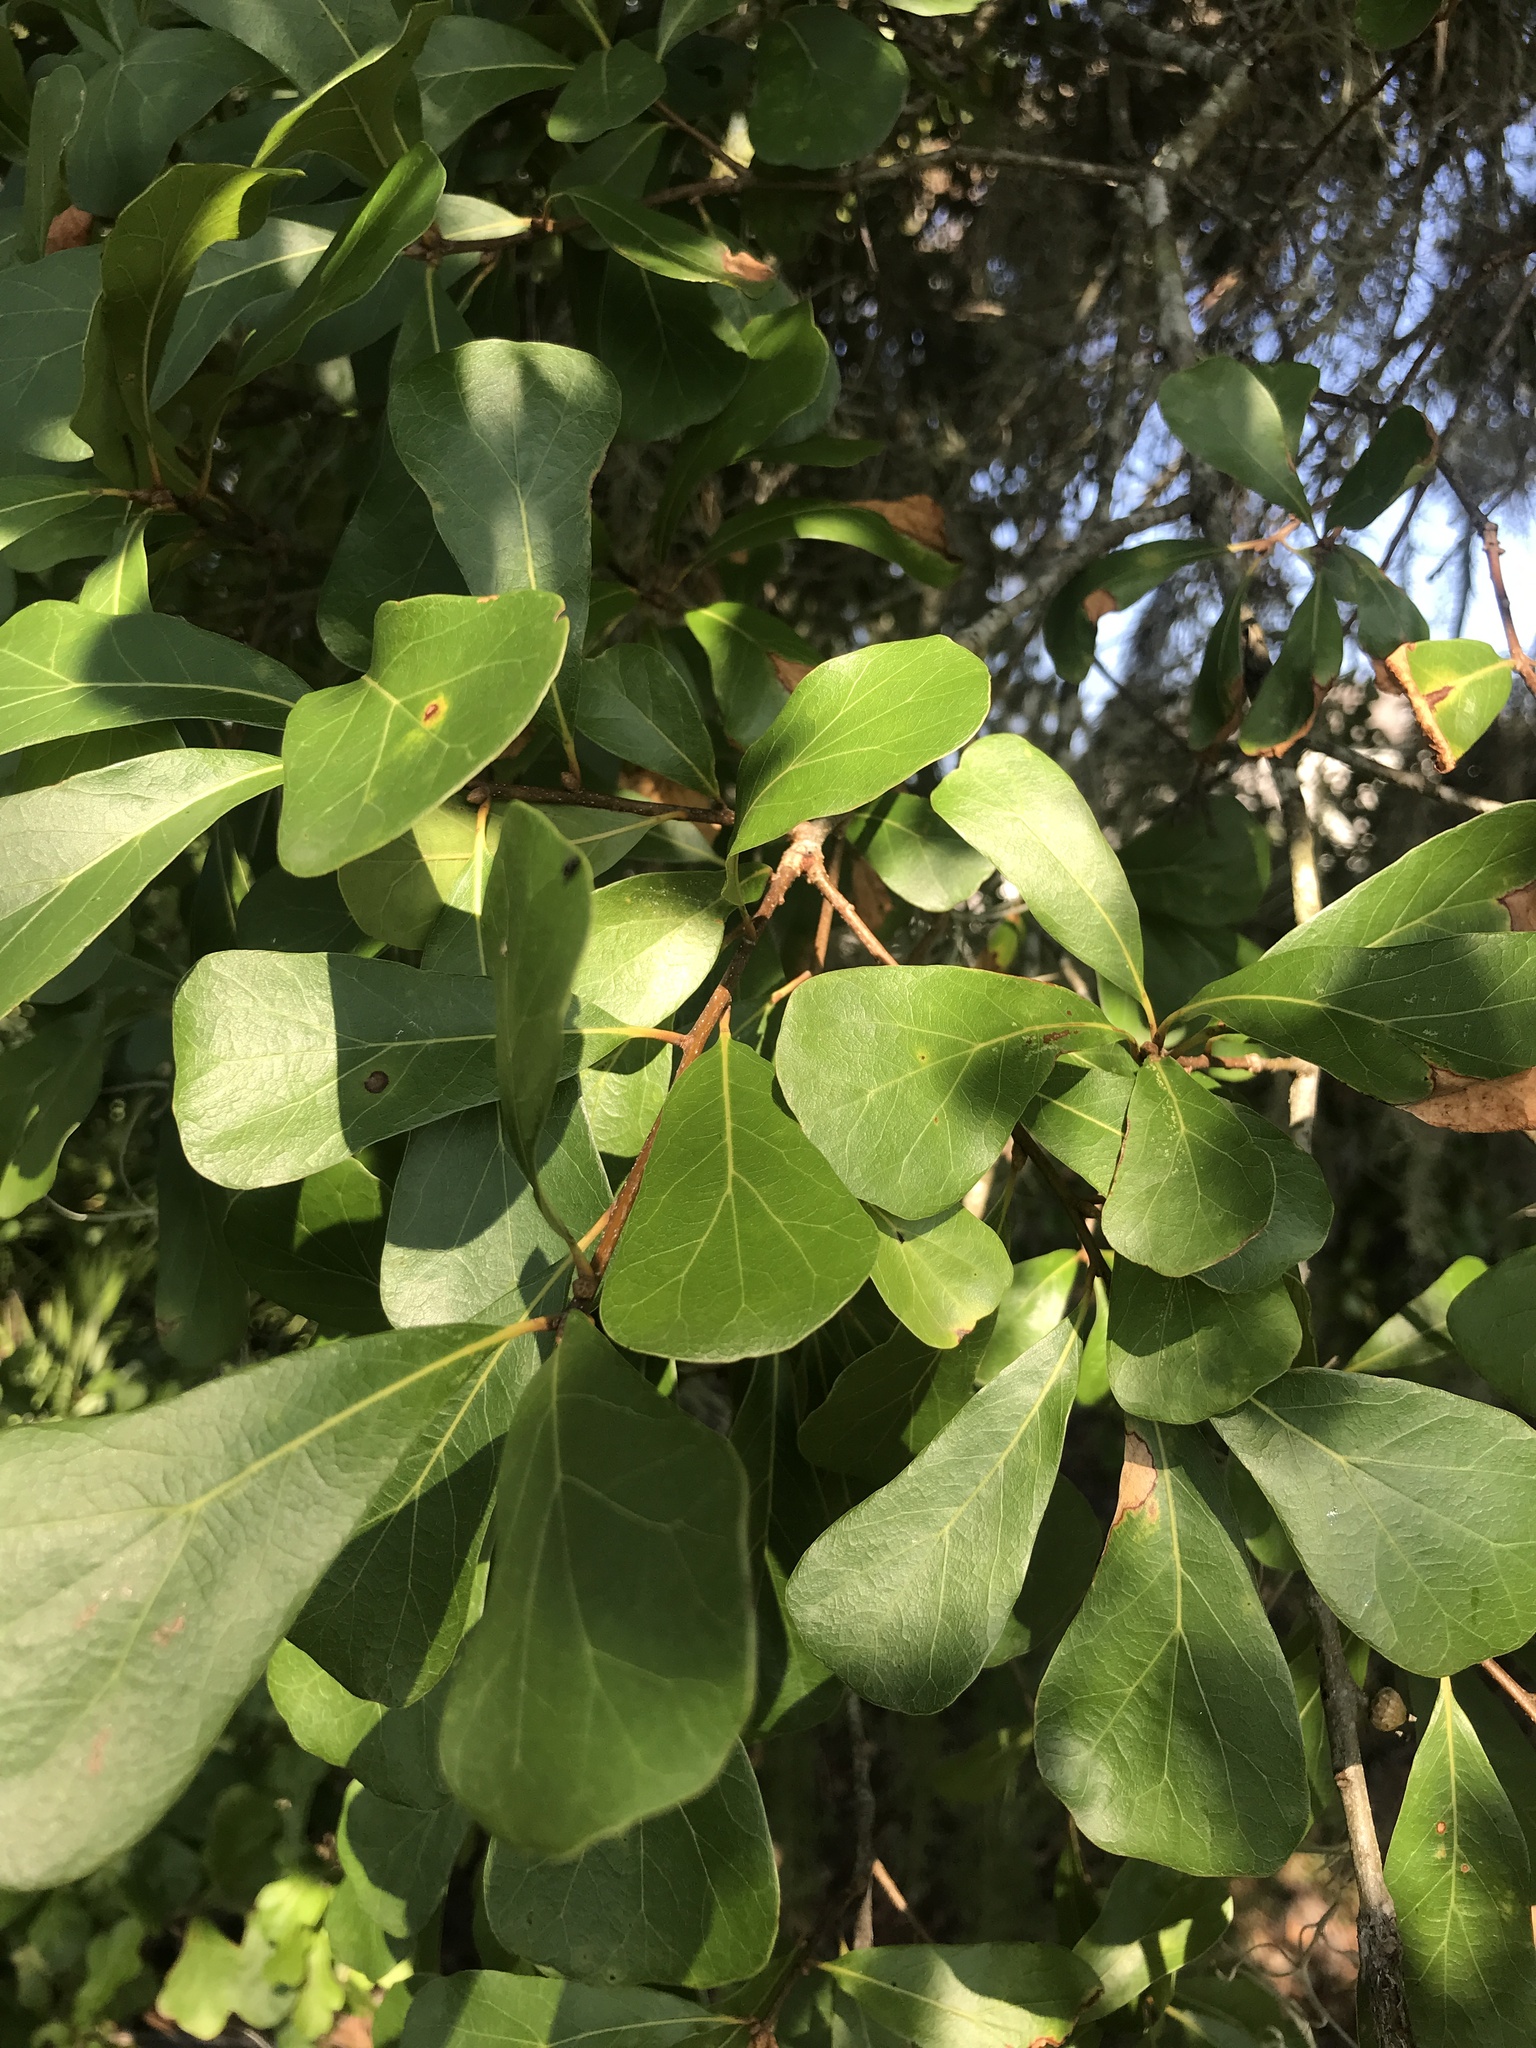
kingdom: Plantae
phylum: Tracheophyta
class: Magnoliopsida
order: Fagales
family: Fagaceae
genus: Quercus
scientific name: Quercus nigra
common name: Water oak
